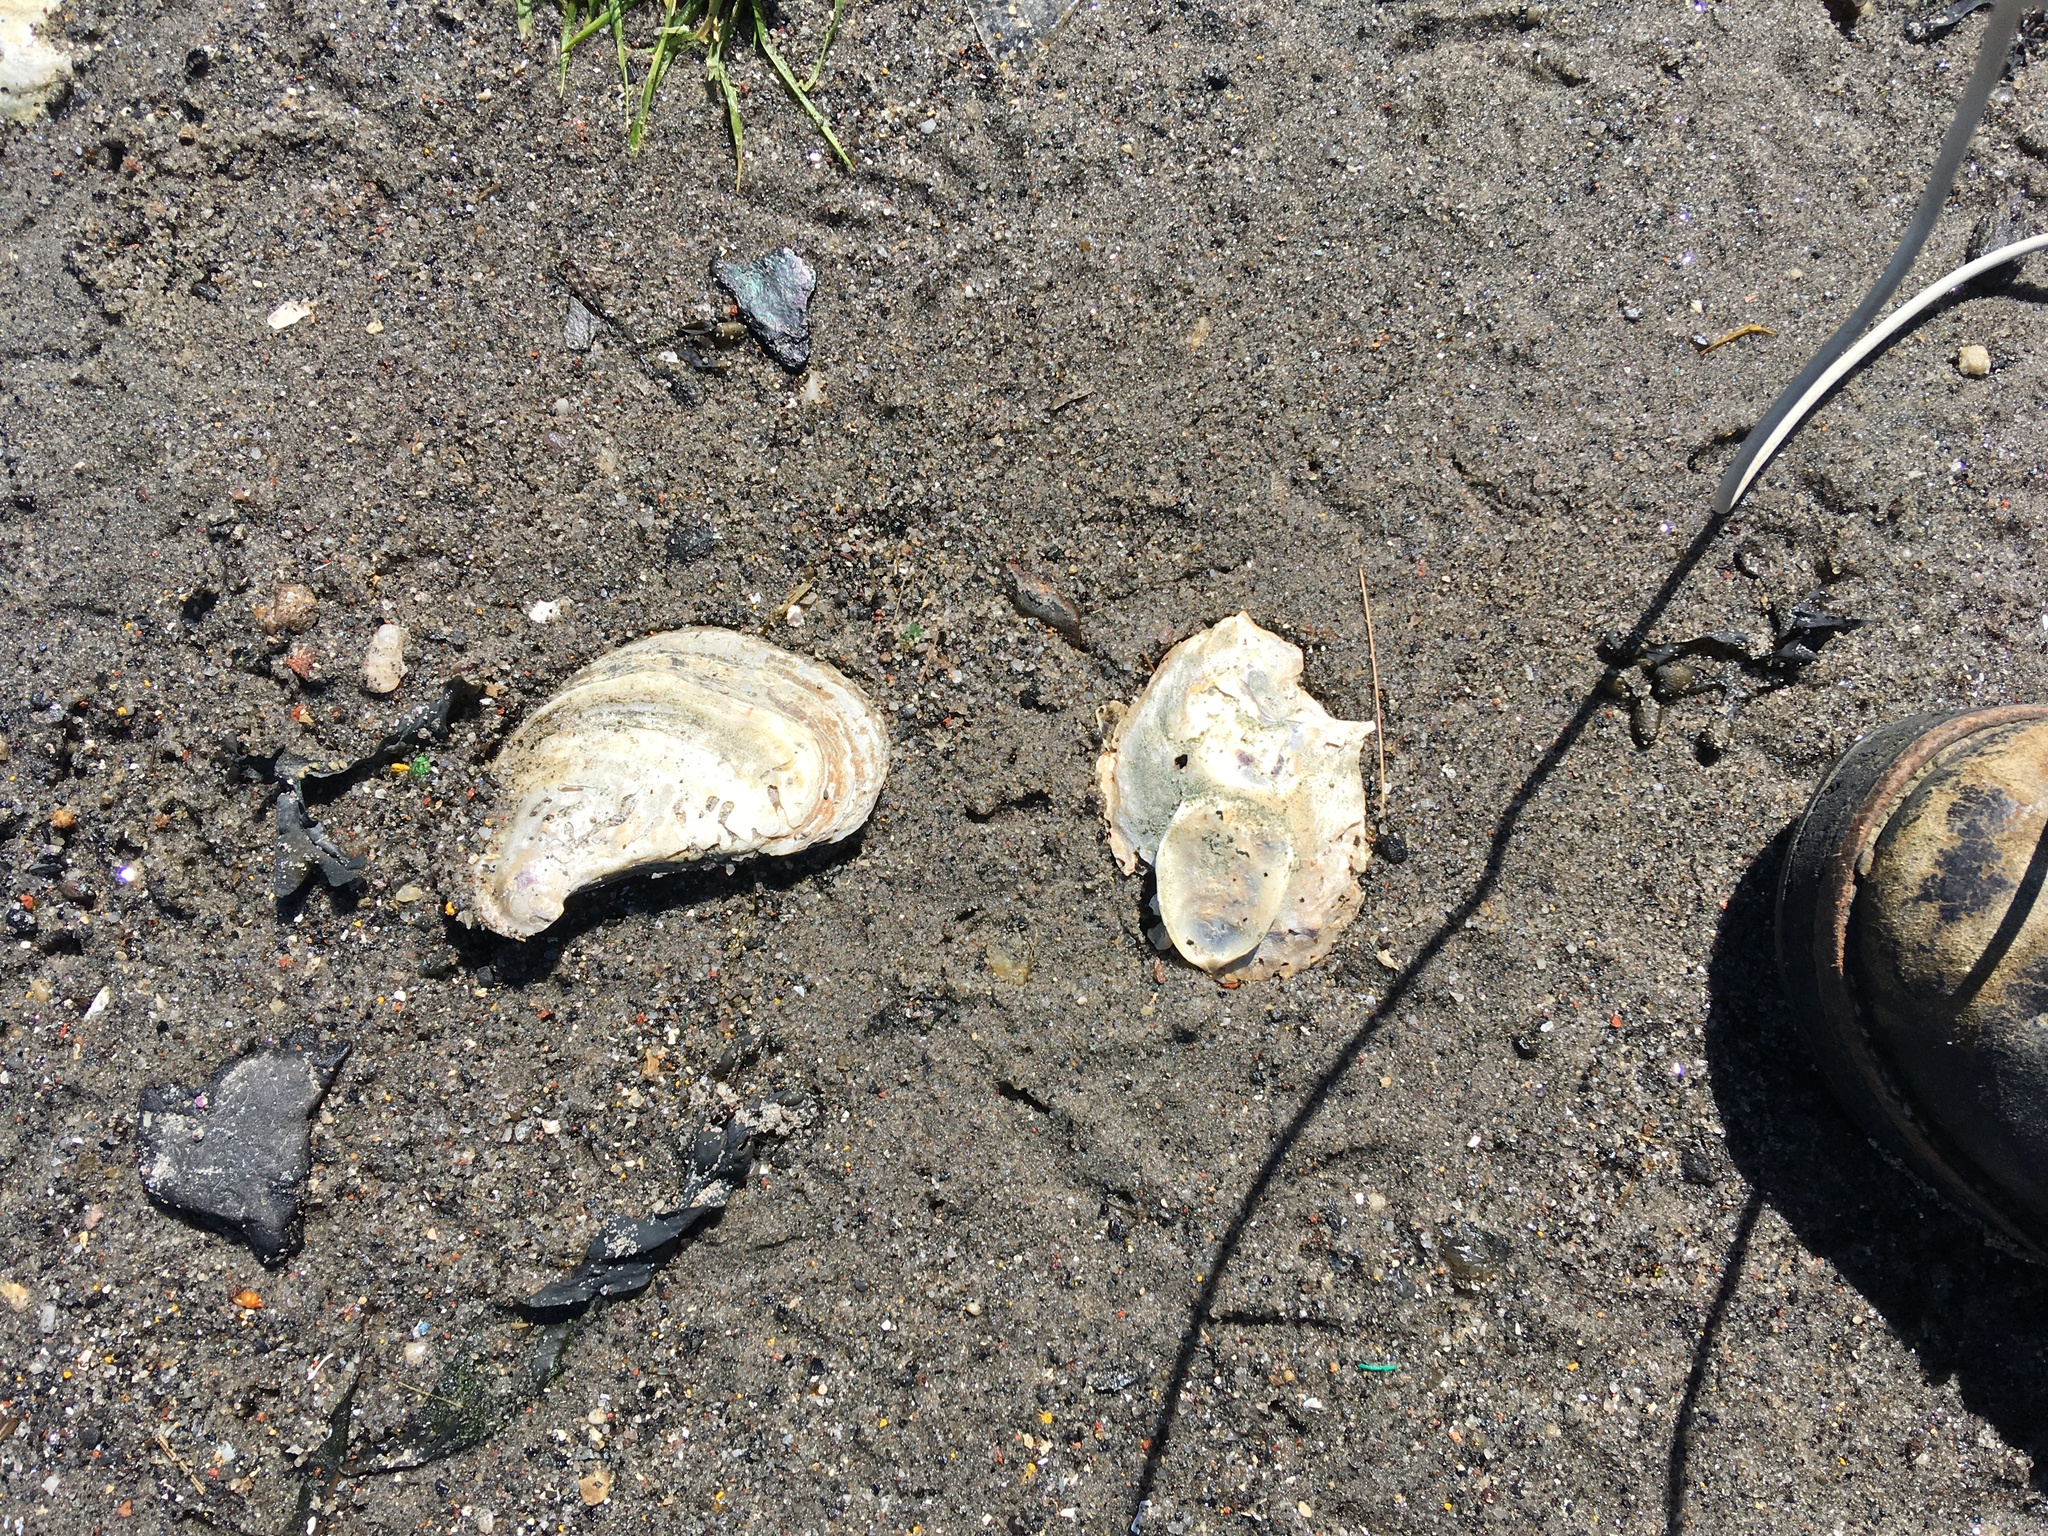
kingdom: Animalia
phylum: Mollusca
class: Bivalvia
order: Ostreida
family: Ostreidae
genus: Crassostrea
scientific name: Crassostrea virginica
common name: American oyster
